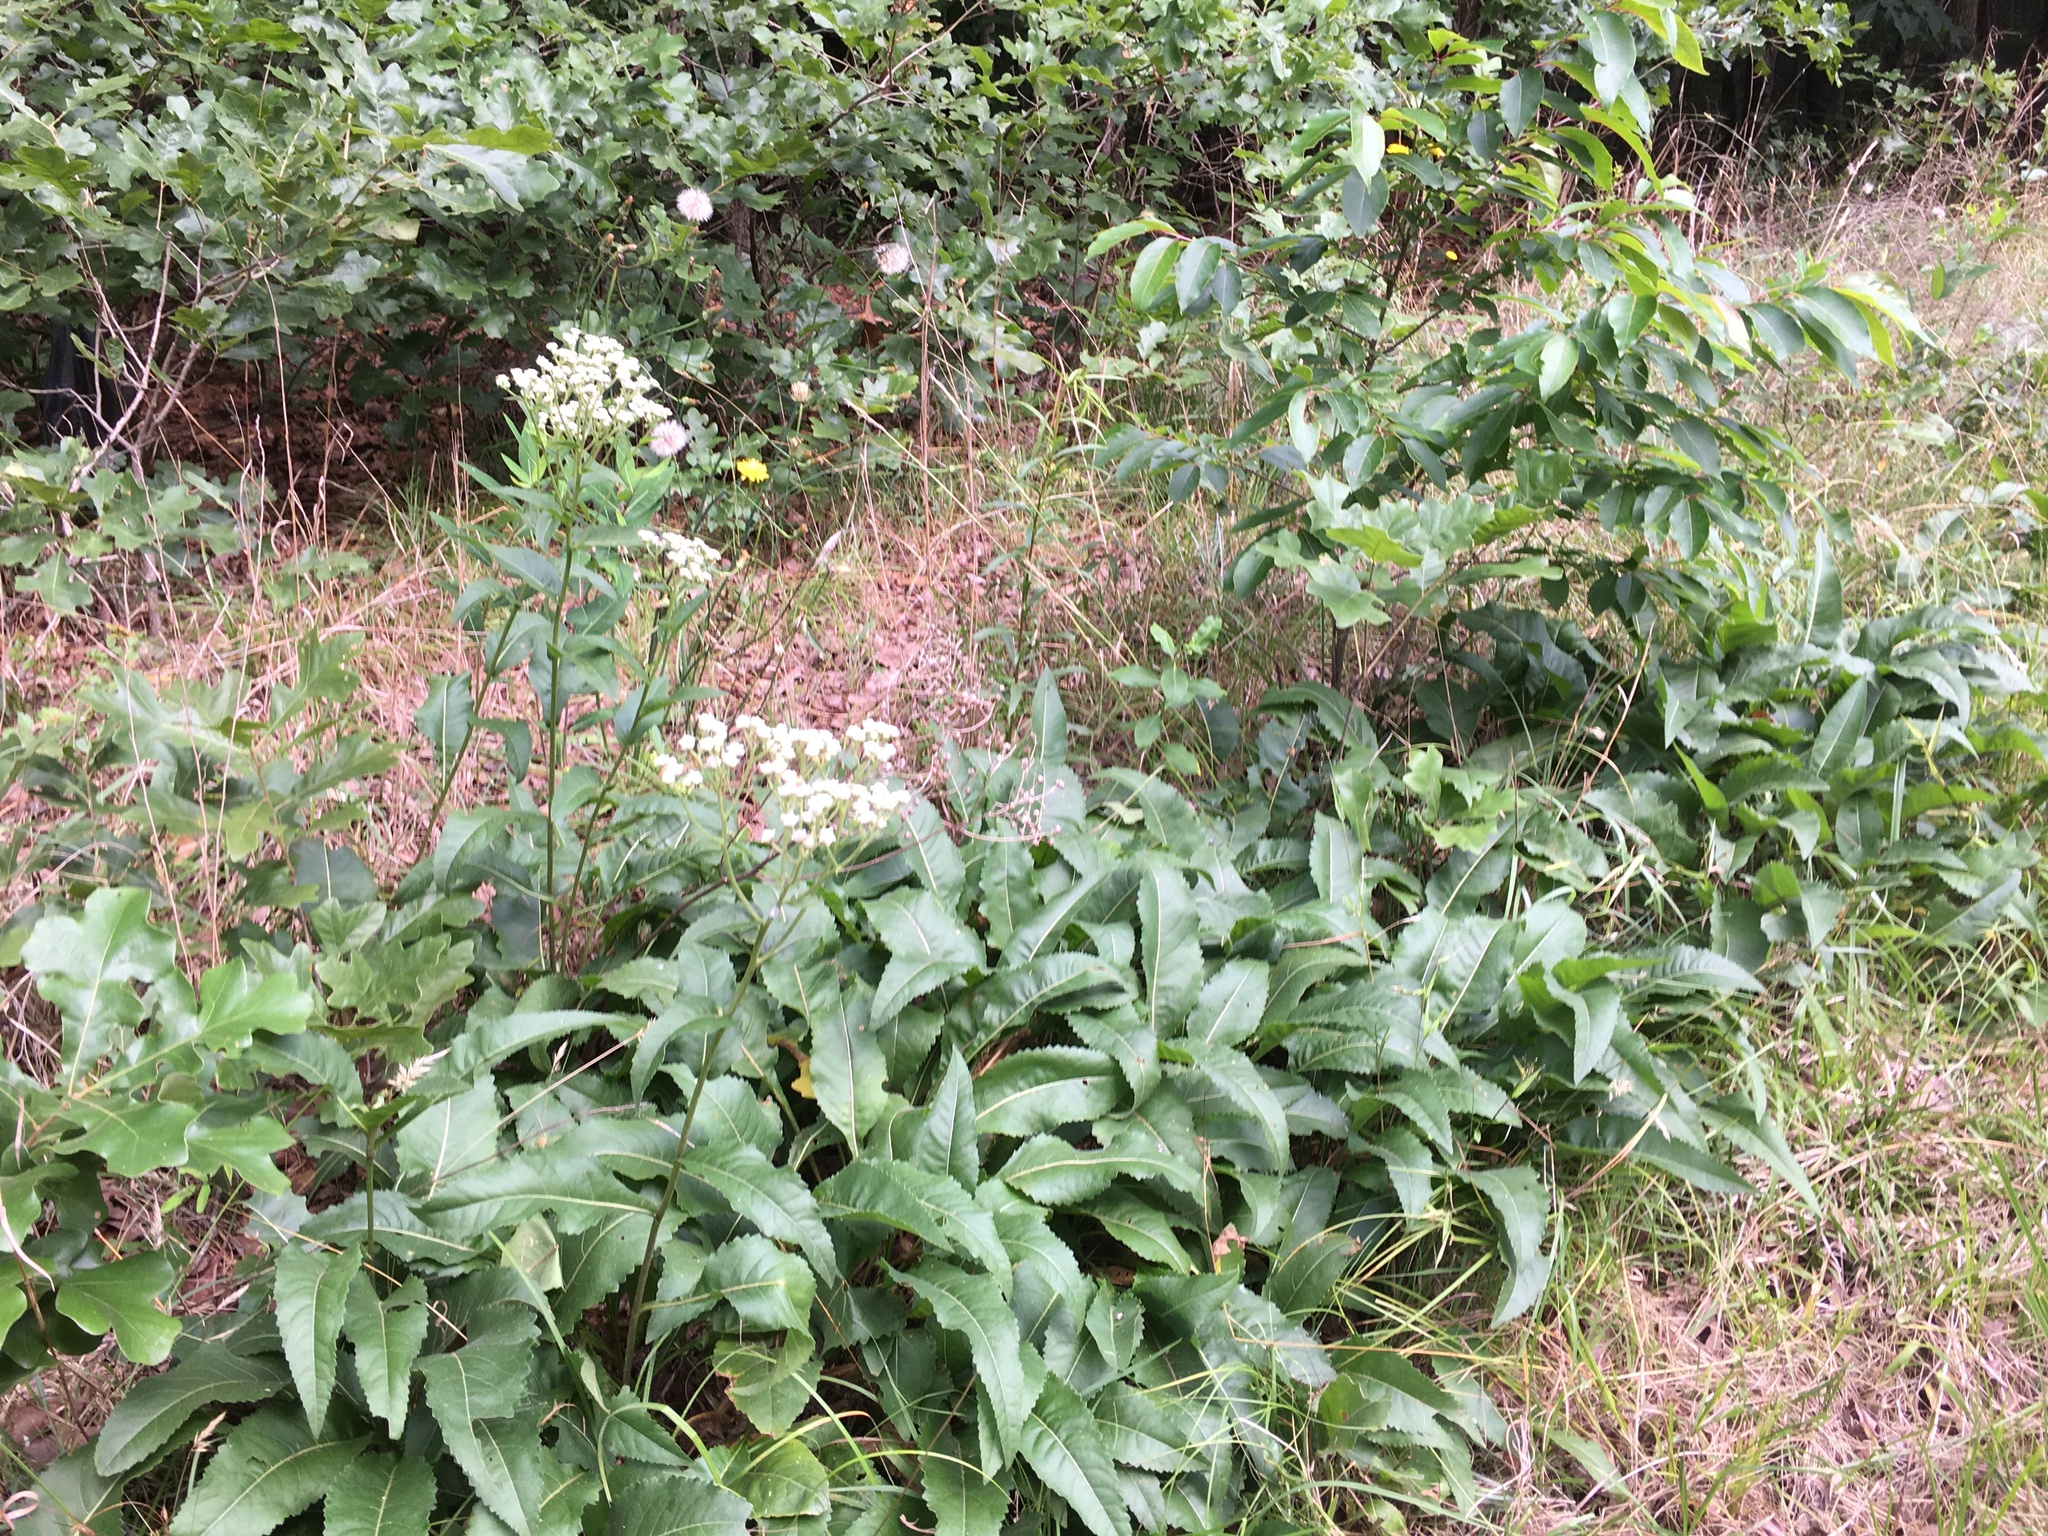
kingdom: Plantae
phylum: Tracheophyta
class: Magnoliopsida
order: Asterales
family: Asteraceae
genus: Parthenium
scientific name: Parthenium integrifolium
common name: American feverfew
